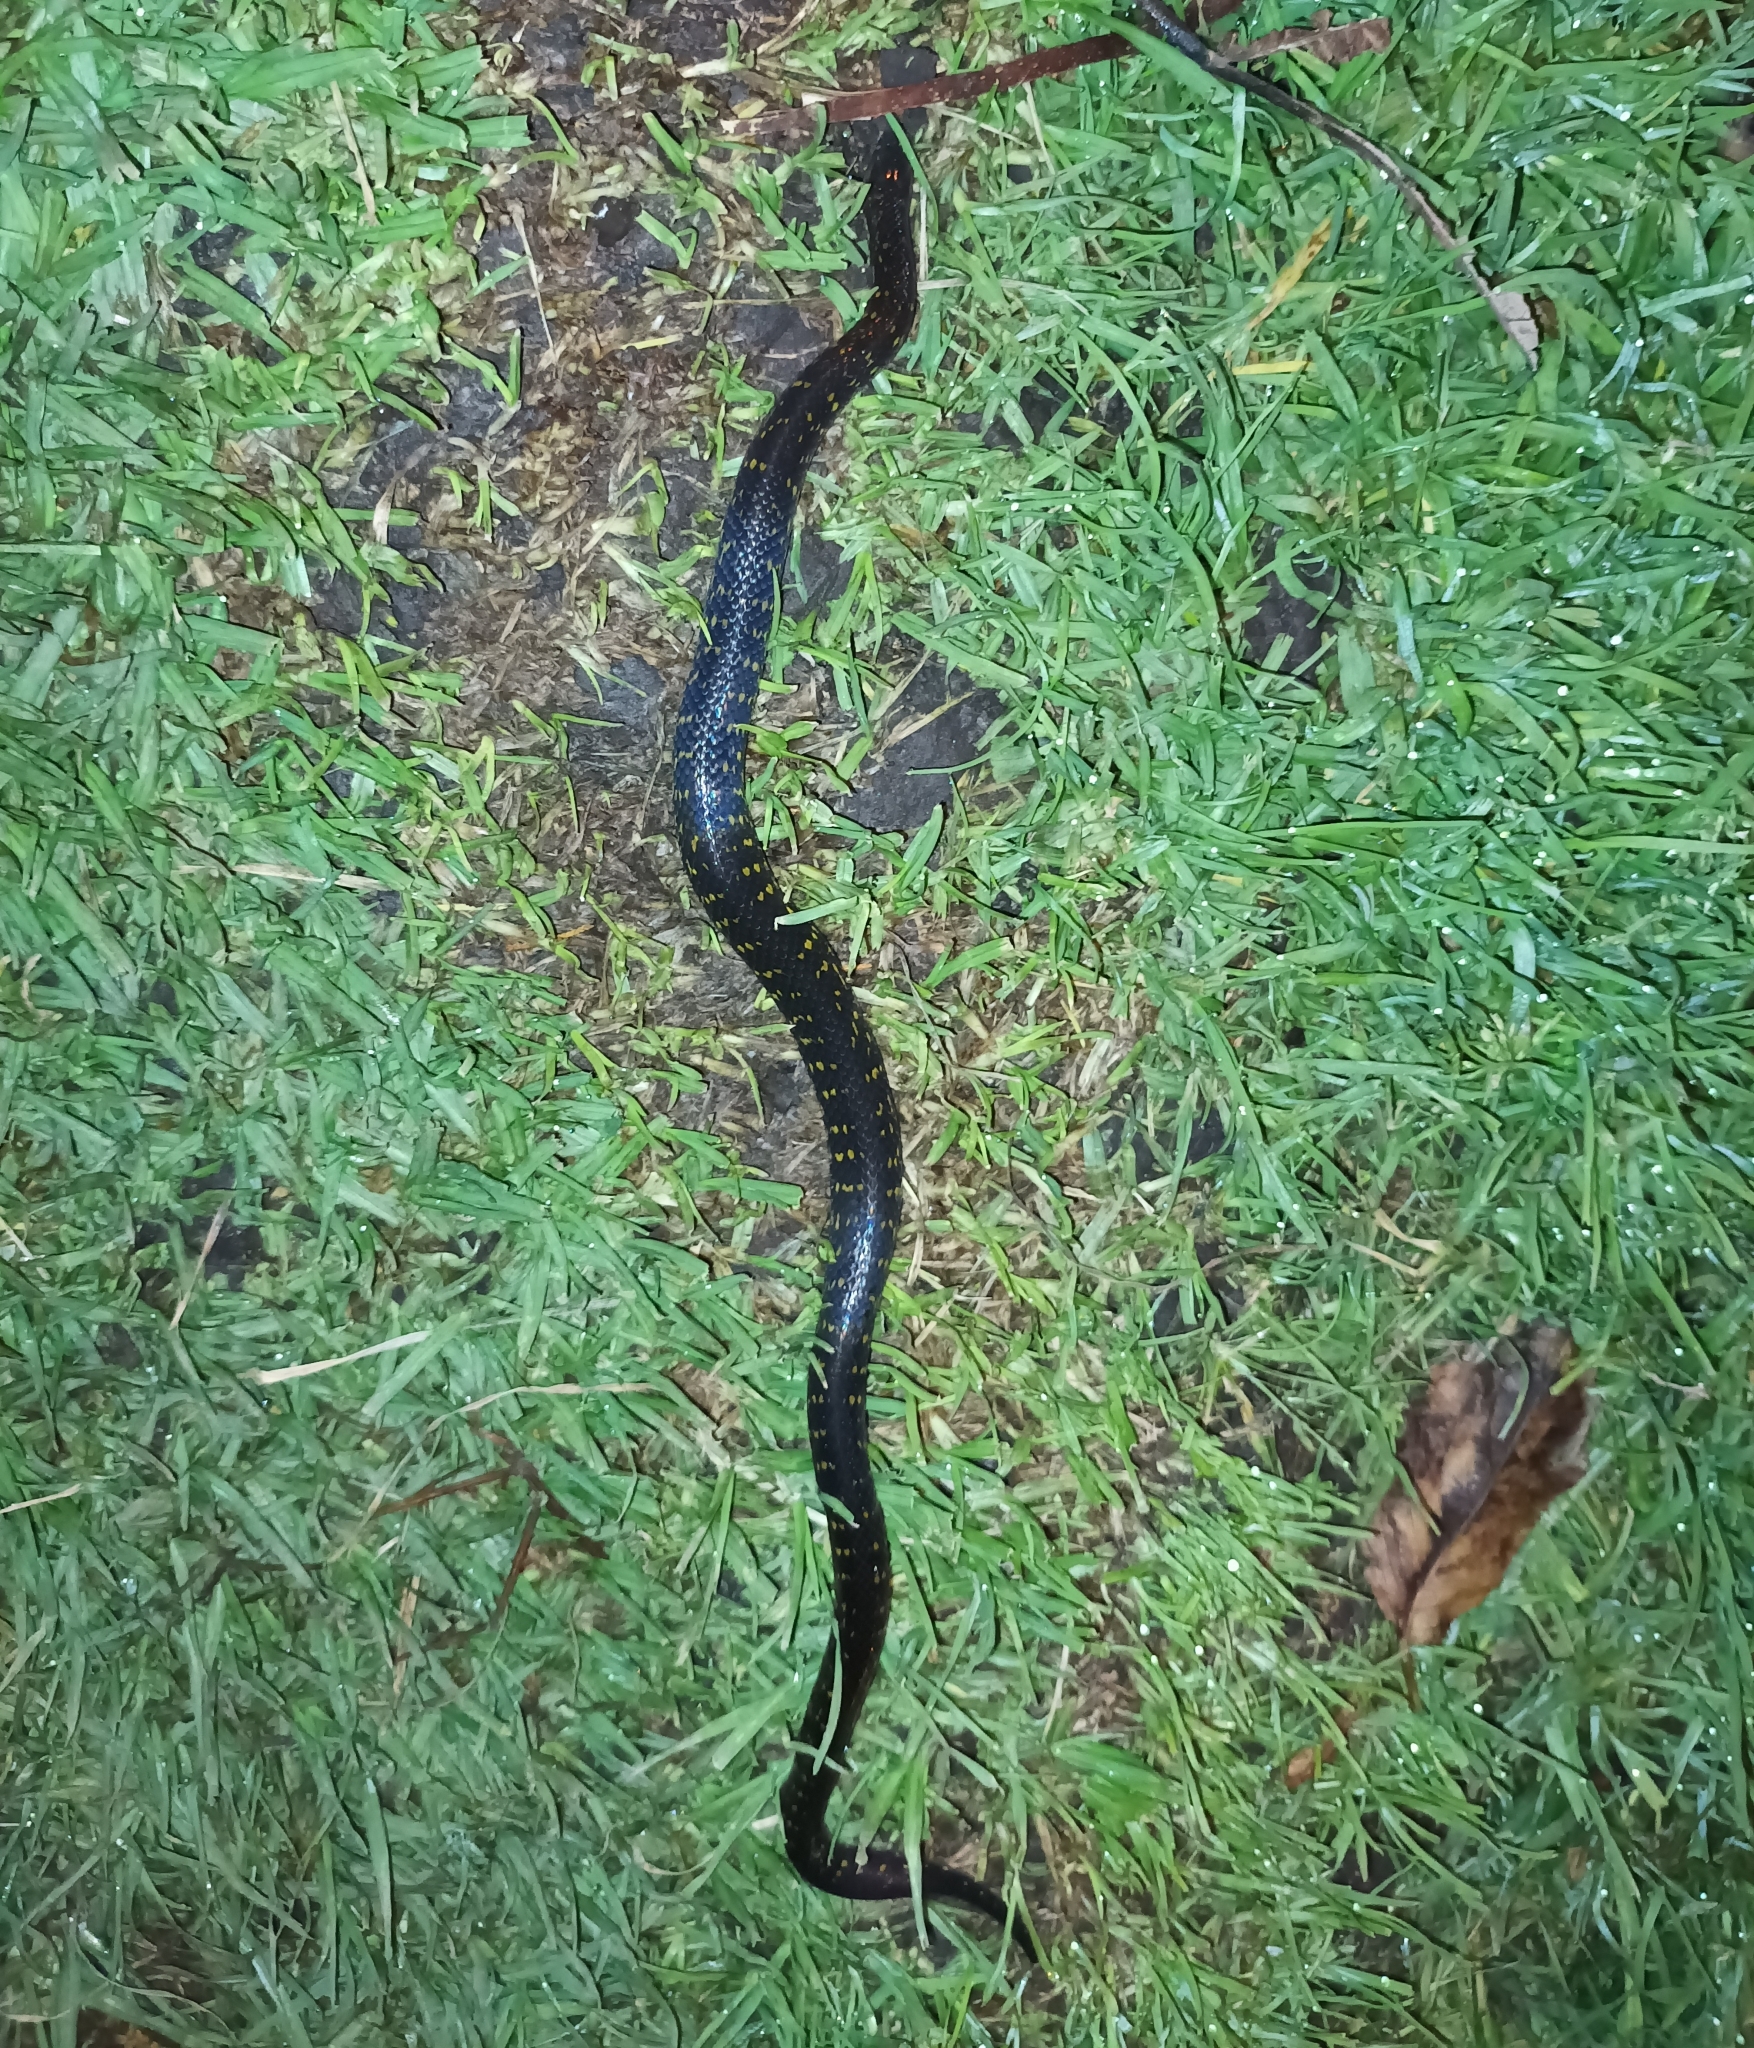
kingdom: Animalia
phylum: Chordata
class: Squamata
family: Colubridae
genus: Atractus
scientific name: Atractus crassicaudatus
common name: Thickhead ground snake
